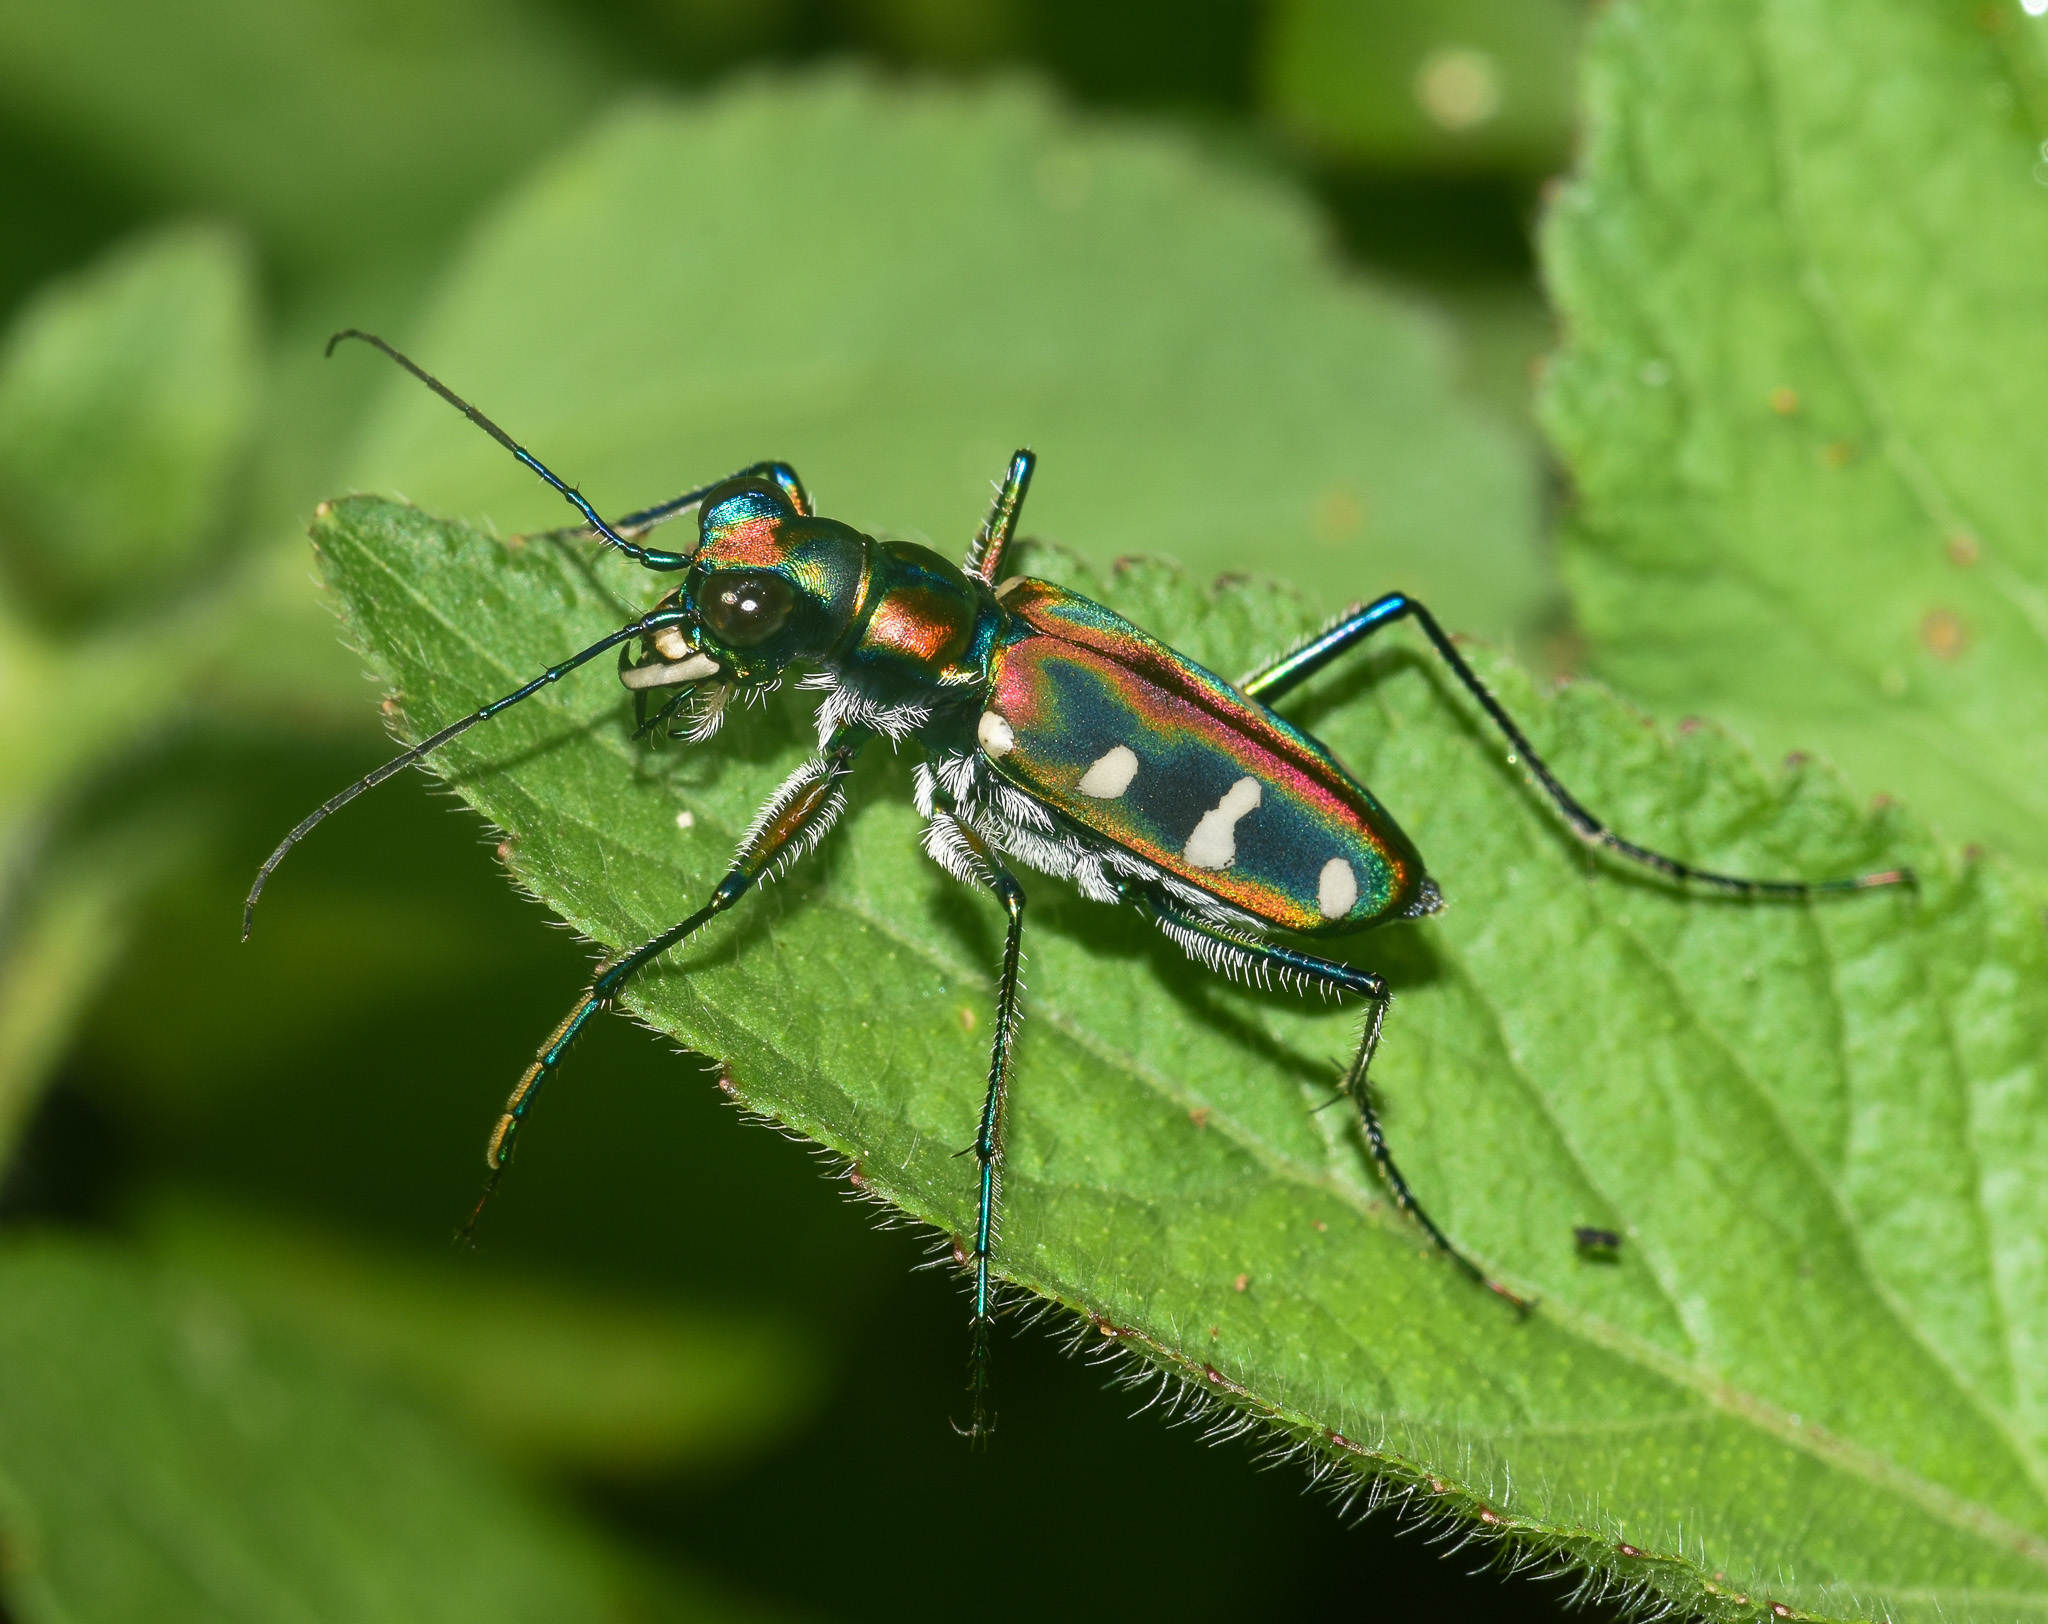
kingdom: Animalia
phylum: Arthropoda
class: Insecta
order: Coleoptera
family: Carabidae
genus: Cicindela
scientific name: Cicindela virgula
